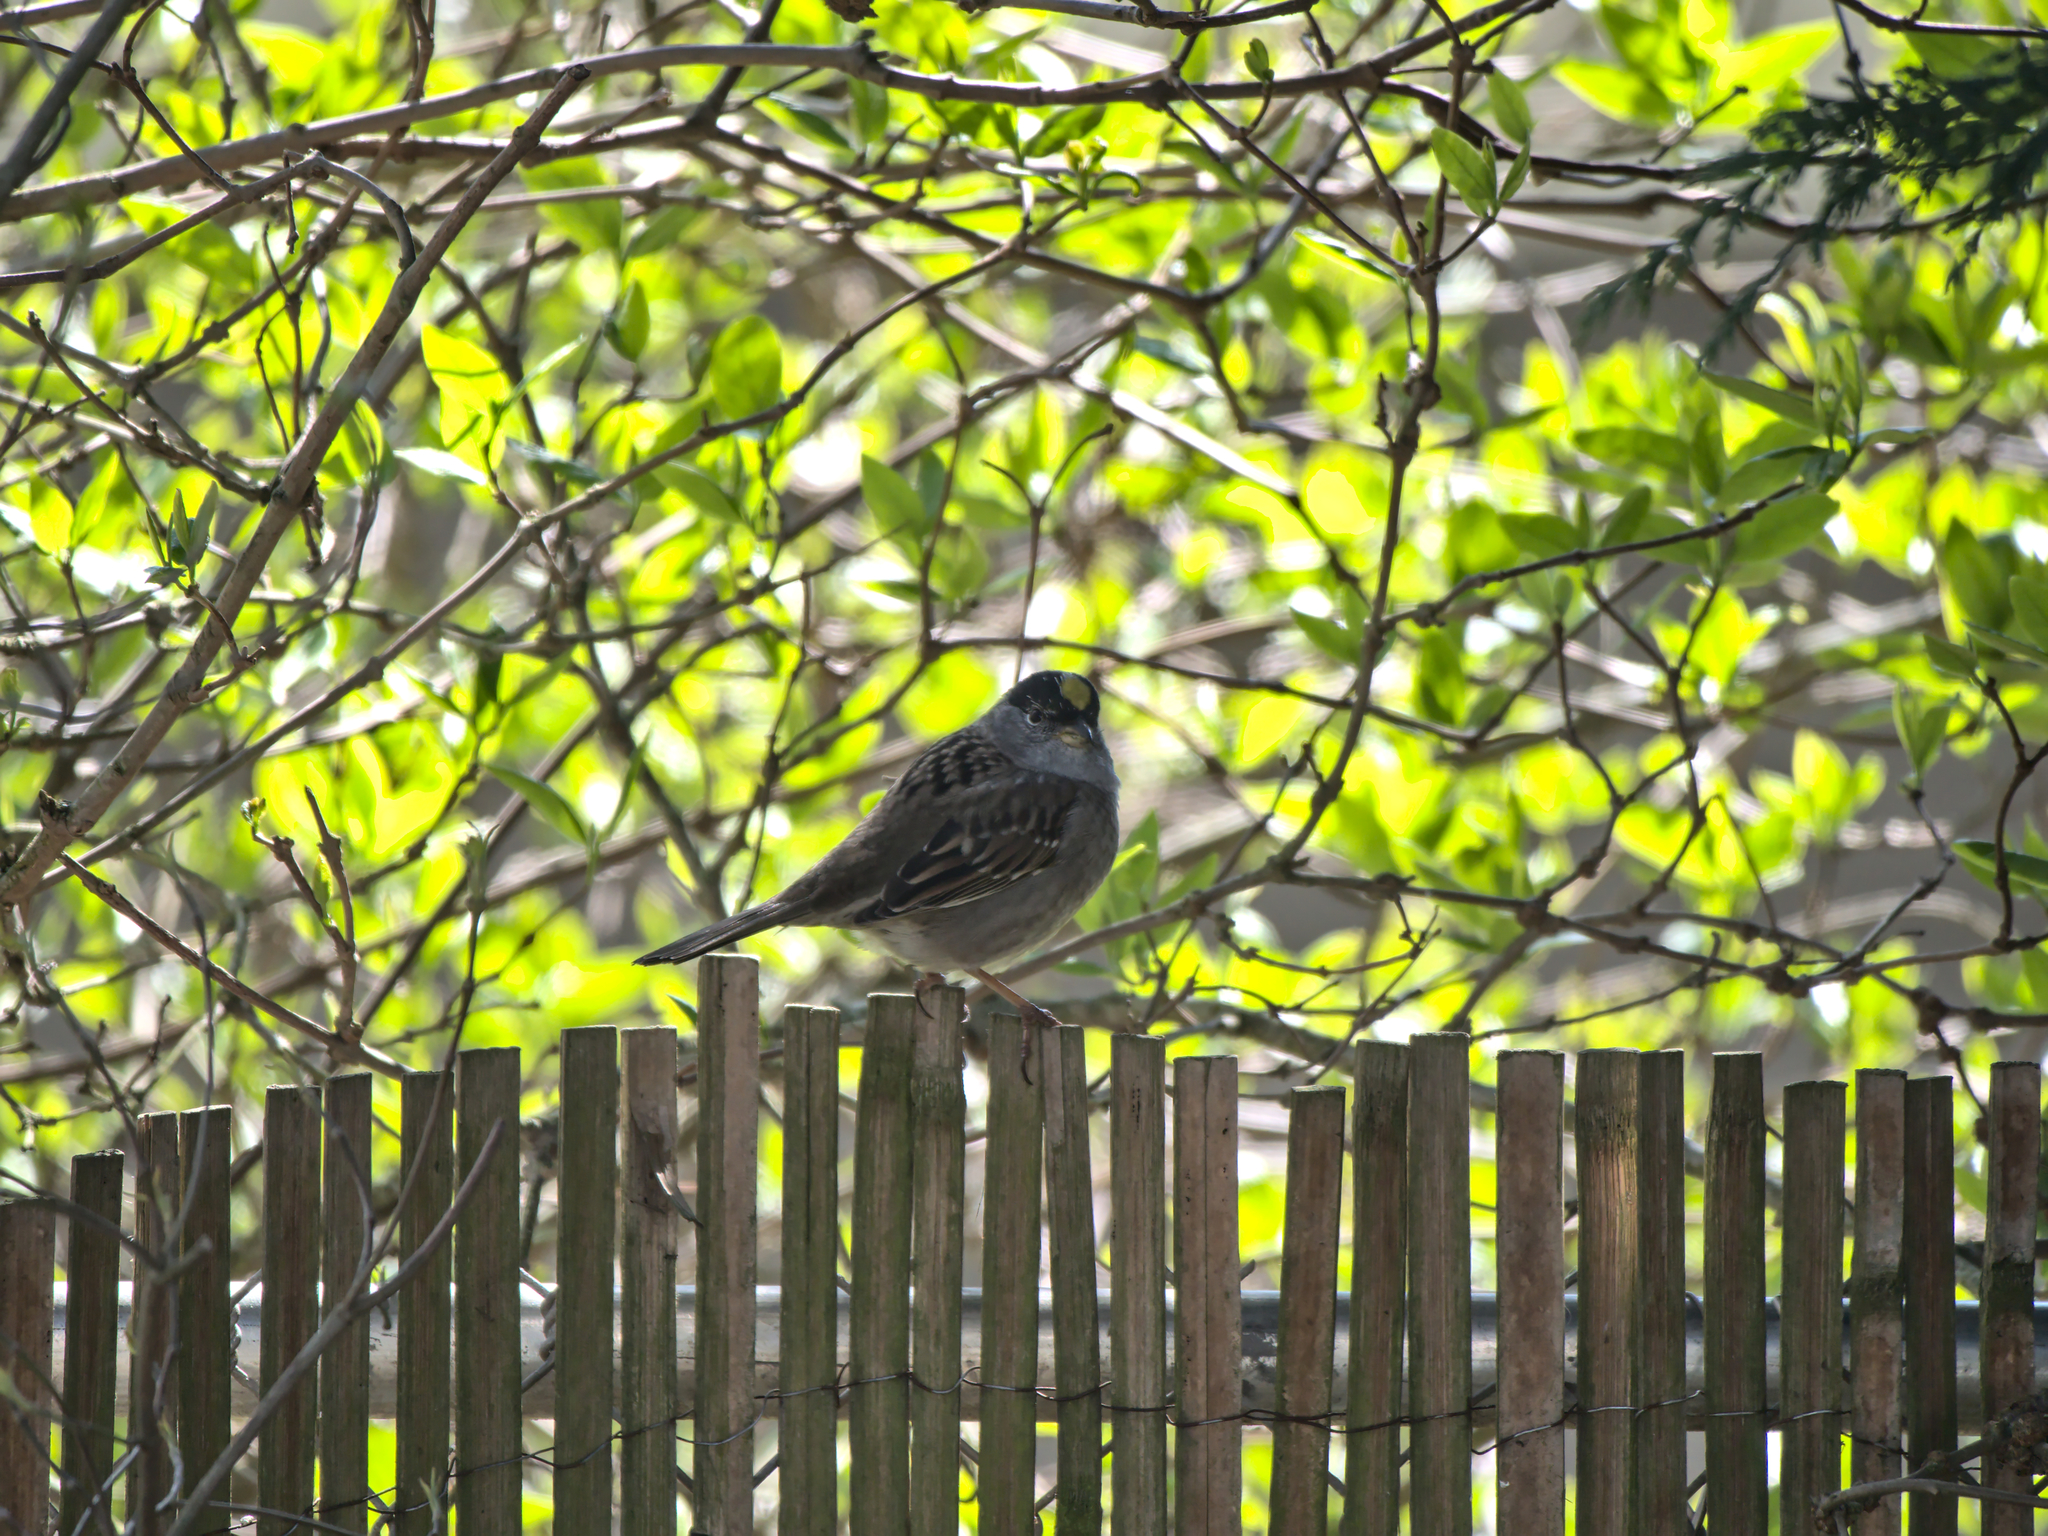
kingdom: Animalia
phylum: Chordata
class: Aves
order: Passeriformes
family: Passerellidae
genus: Zonotrichia
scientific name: Zonotrichia atricapilla
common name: Golden-crowned sparrow
